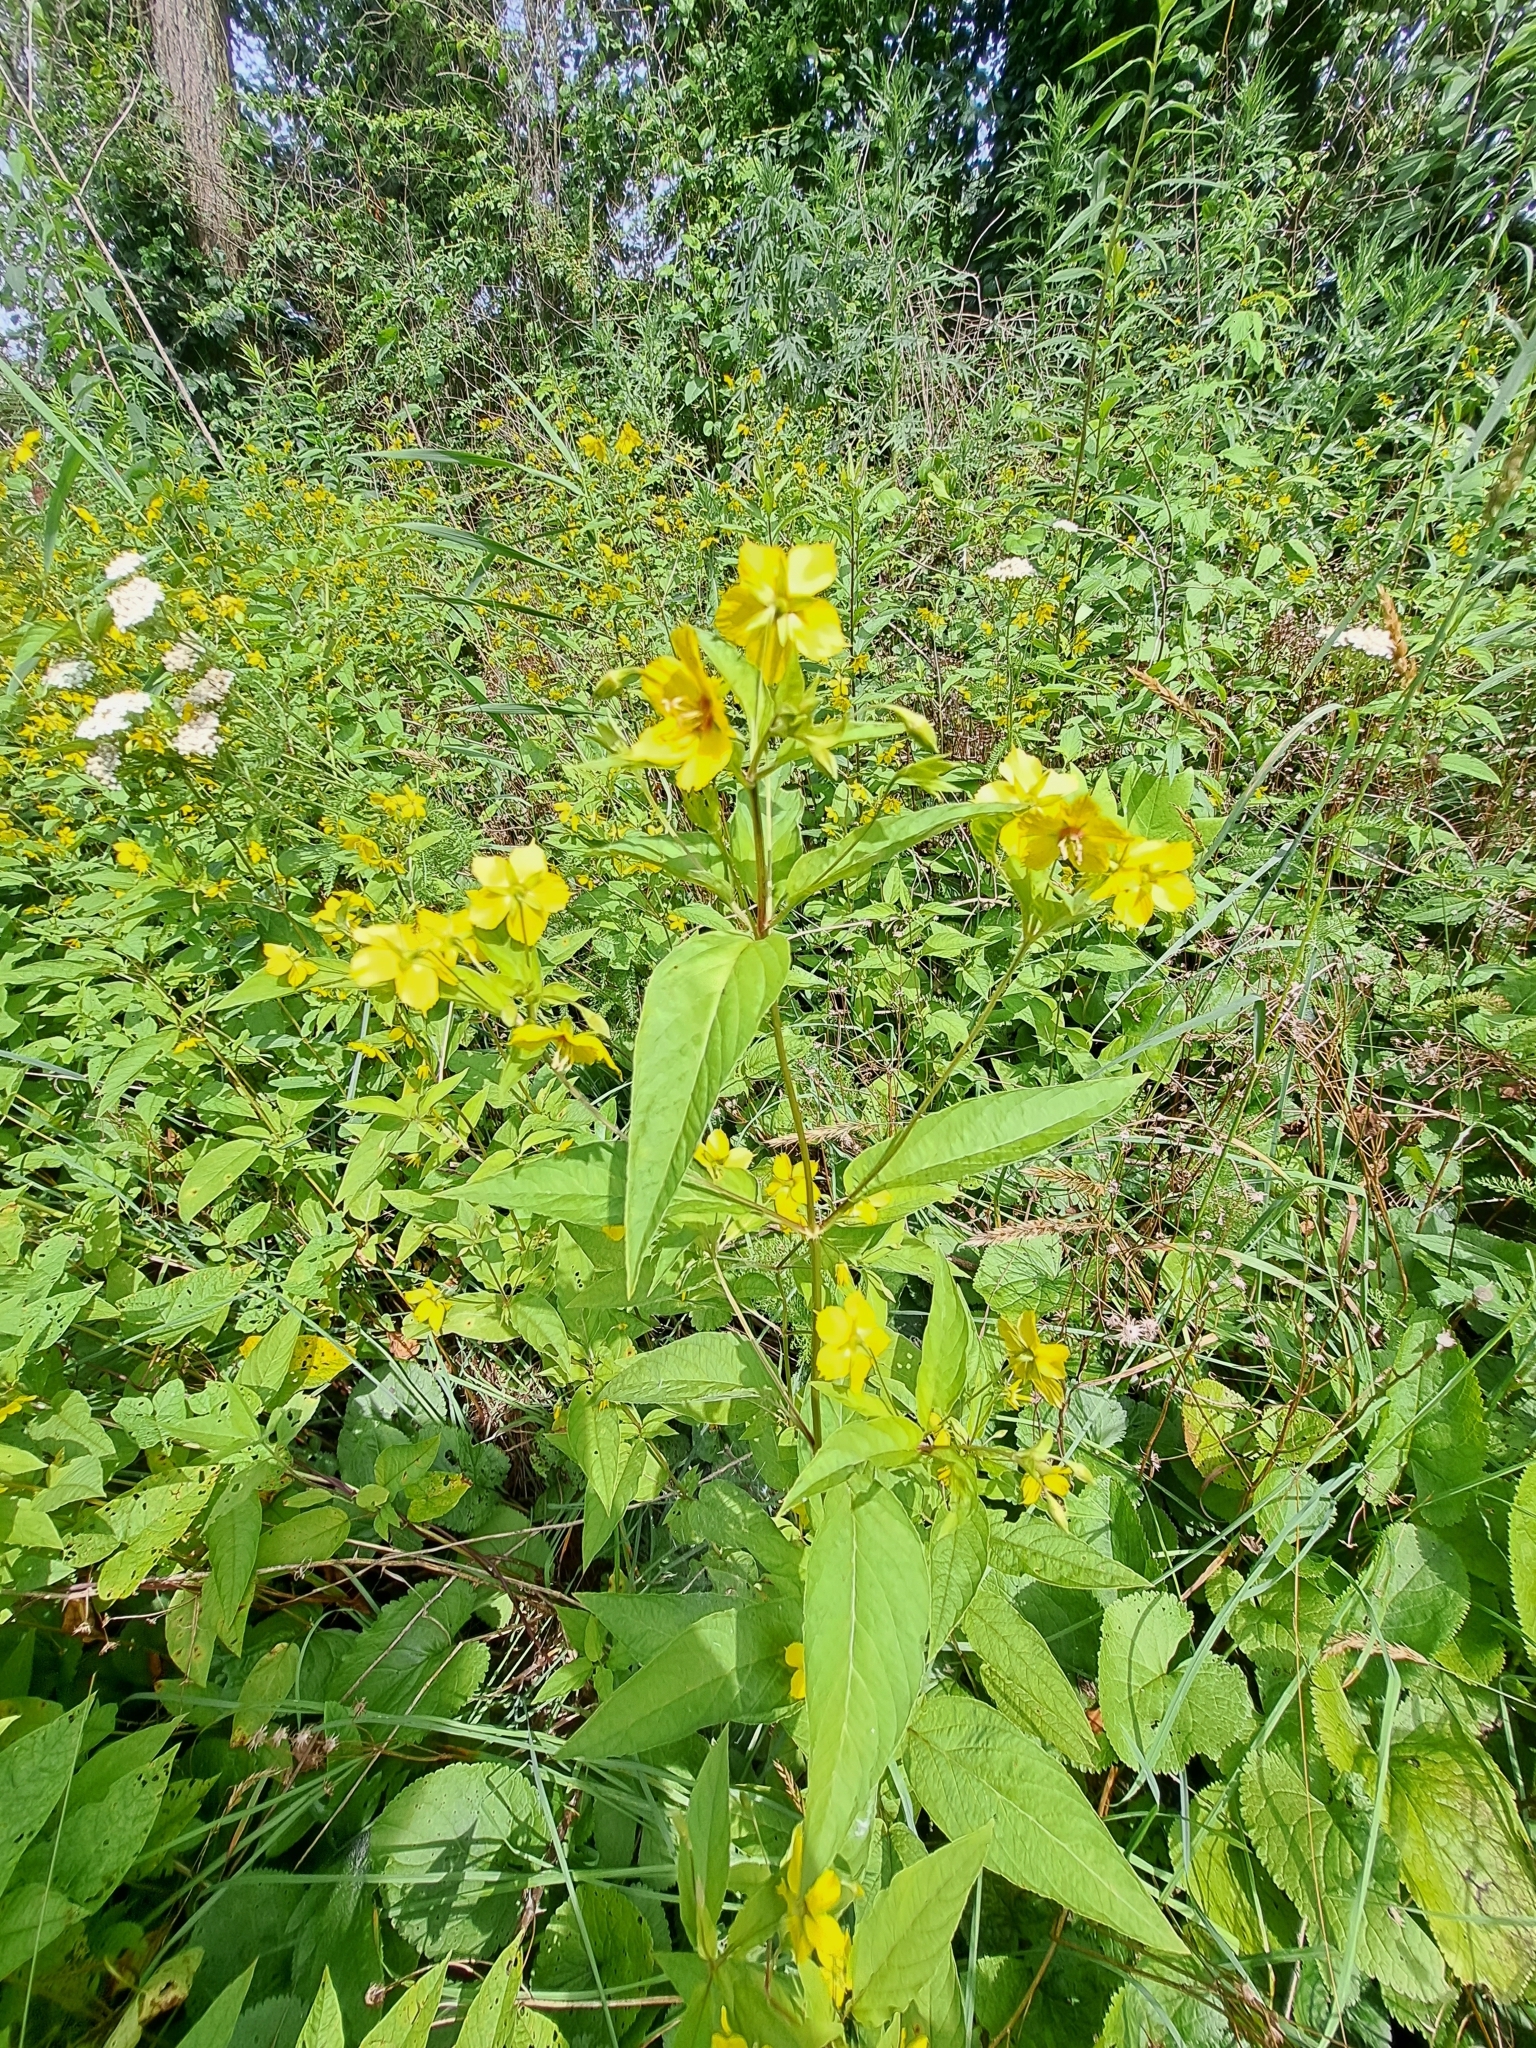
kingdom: Plantae
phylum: Tracheophyta
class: Magnoliopsida
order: Ericales
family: Primulaceae
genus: Lysimachia
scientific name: Lysimachia ciliata
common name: Fringed loosestrife
